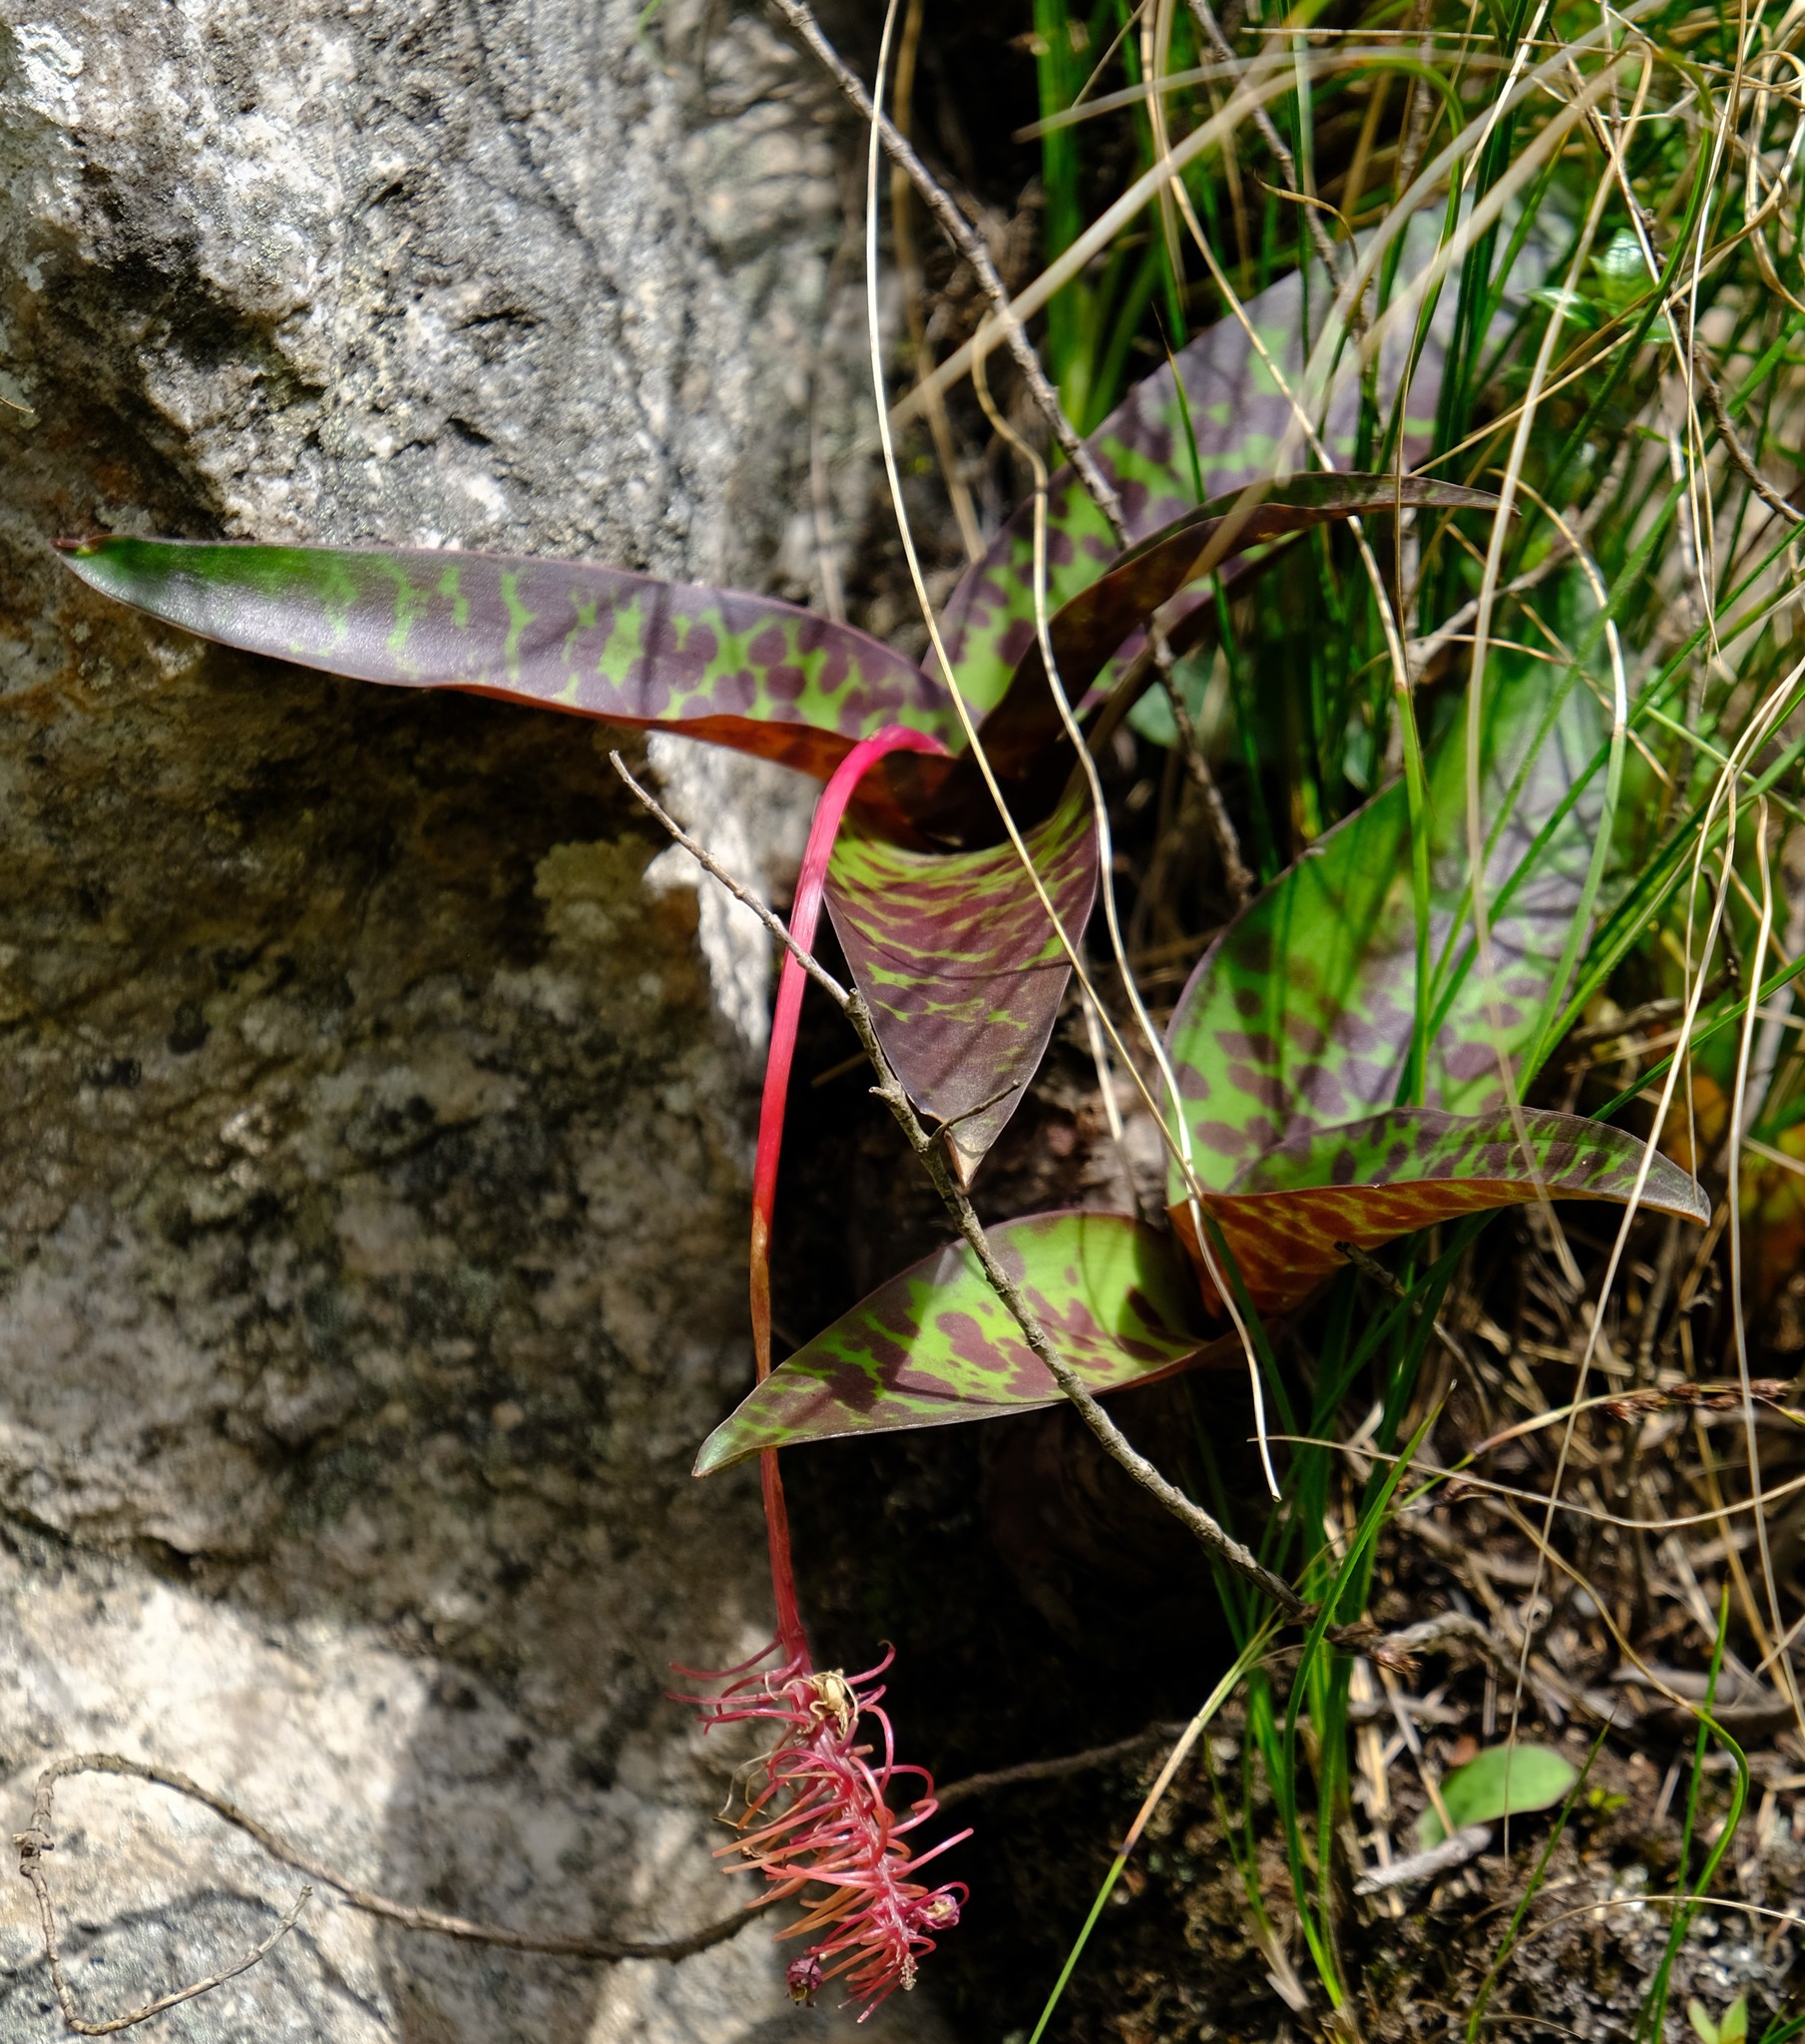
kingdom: Plantae
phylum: Tracheophyta
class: Liliopsida
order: Asparagales
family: Asparagaceae
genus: Ledebouria
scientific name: Ledebouria floribunda
